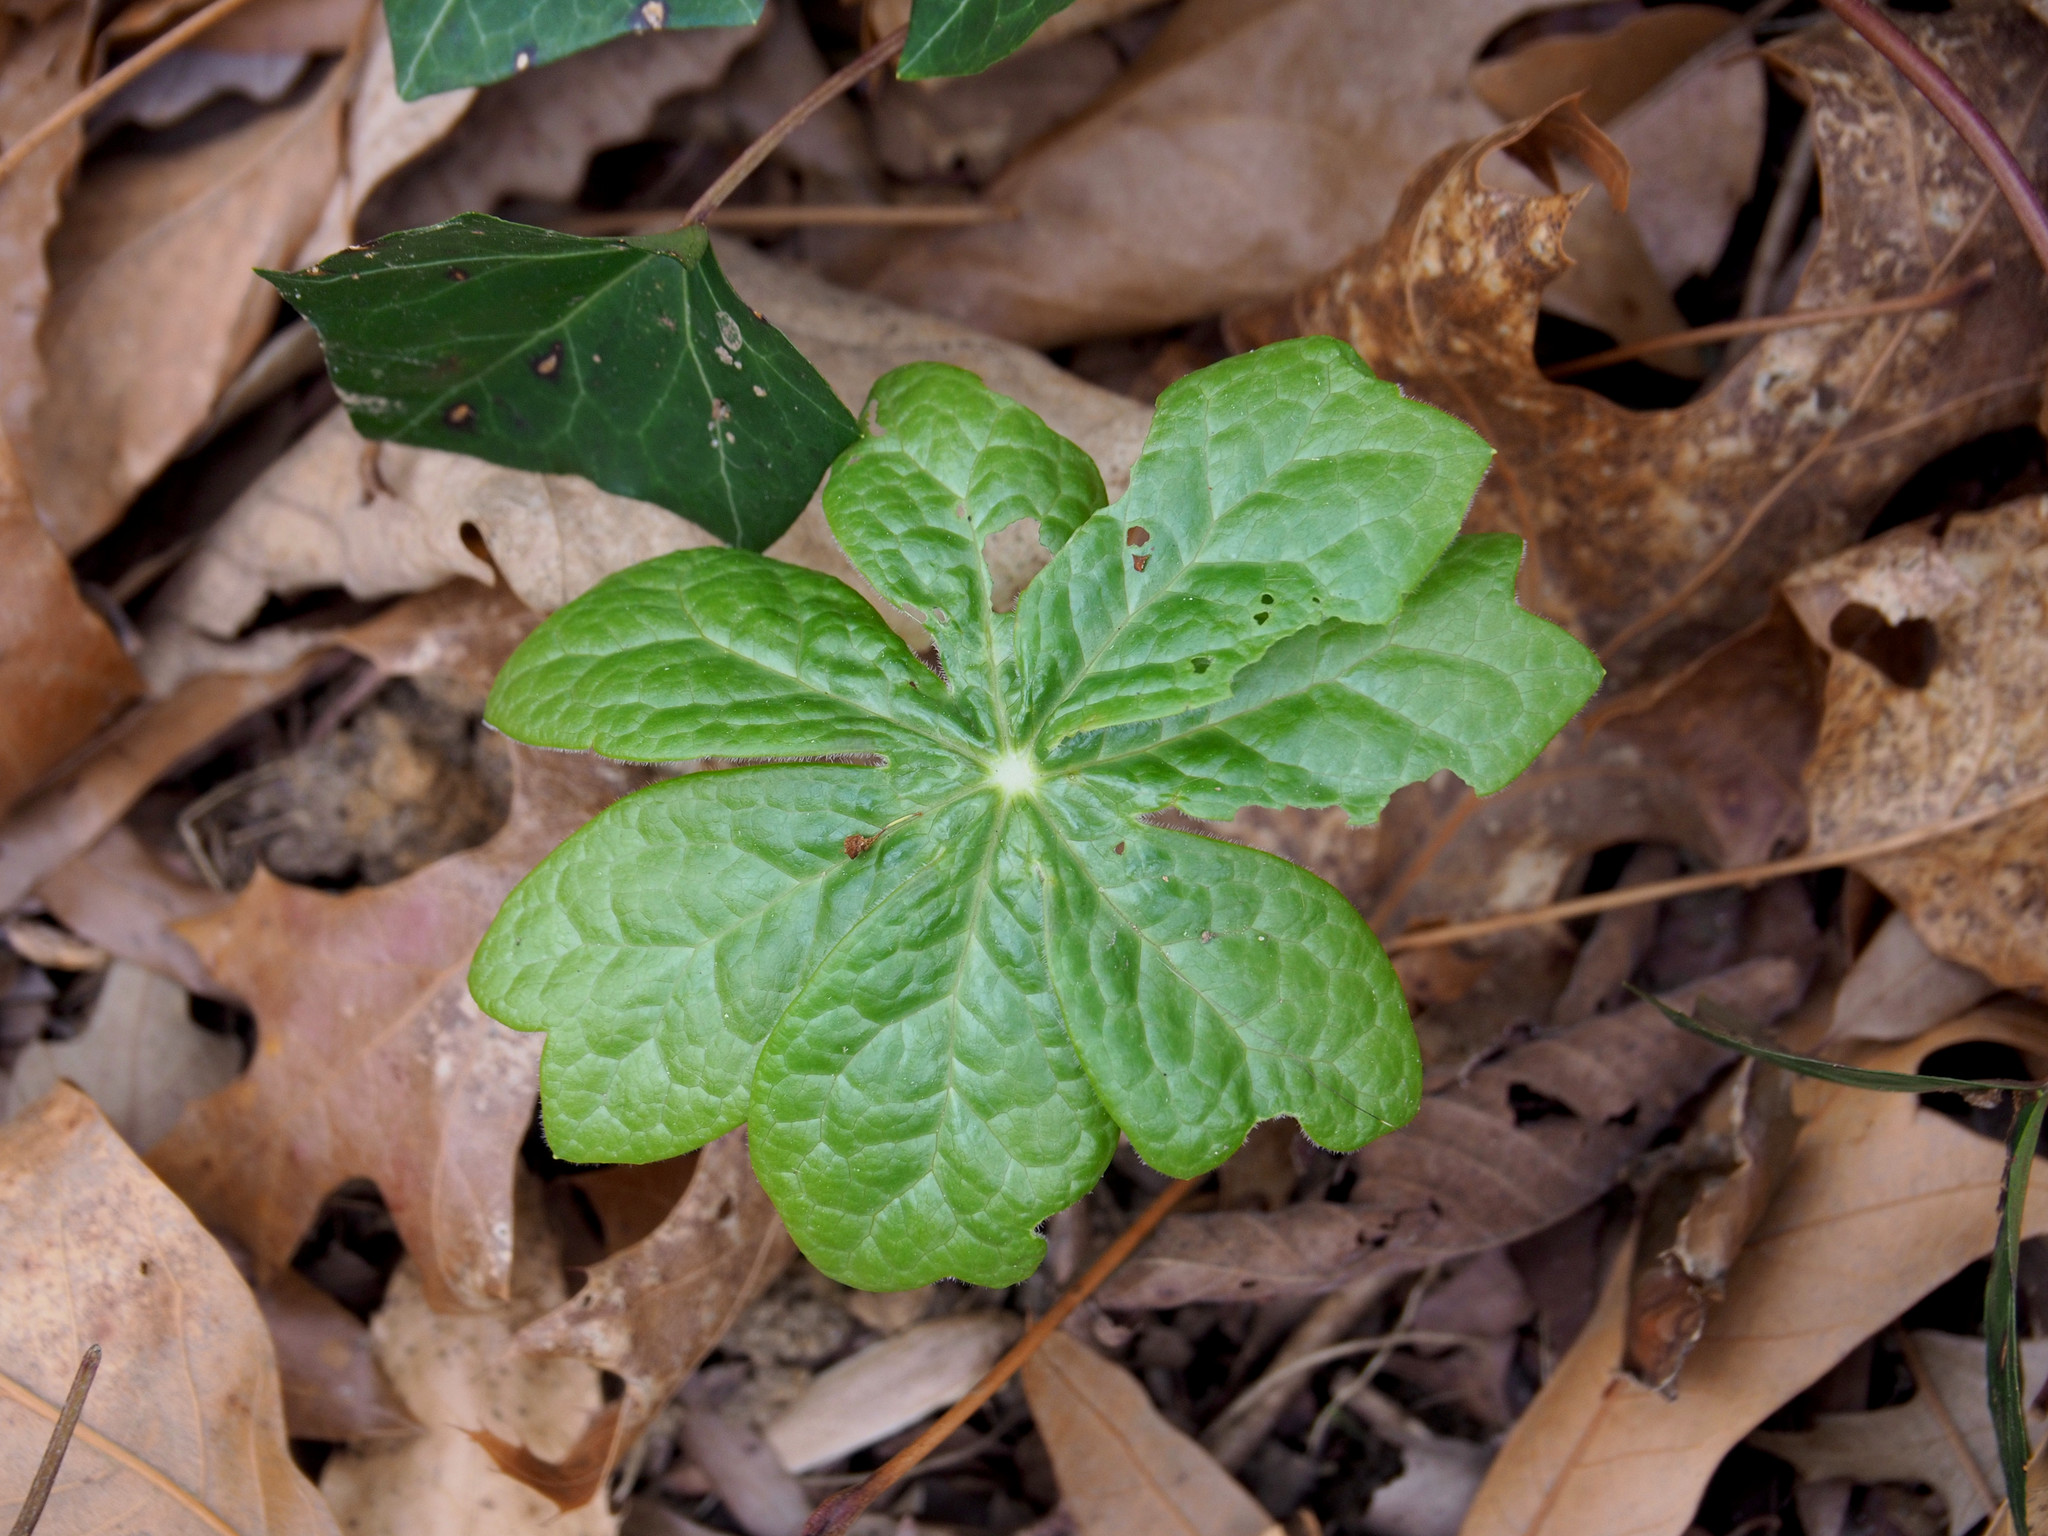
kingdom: Plantae
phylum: Tracheophyta
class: Magnoliopsida
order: Ranunculales
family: Berberidaceae
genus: Podophyllum
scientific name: Podophyllum peltatum
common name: Wild mandrake
